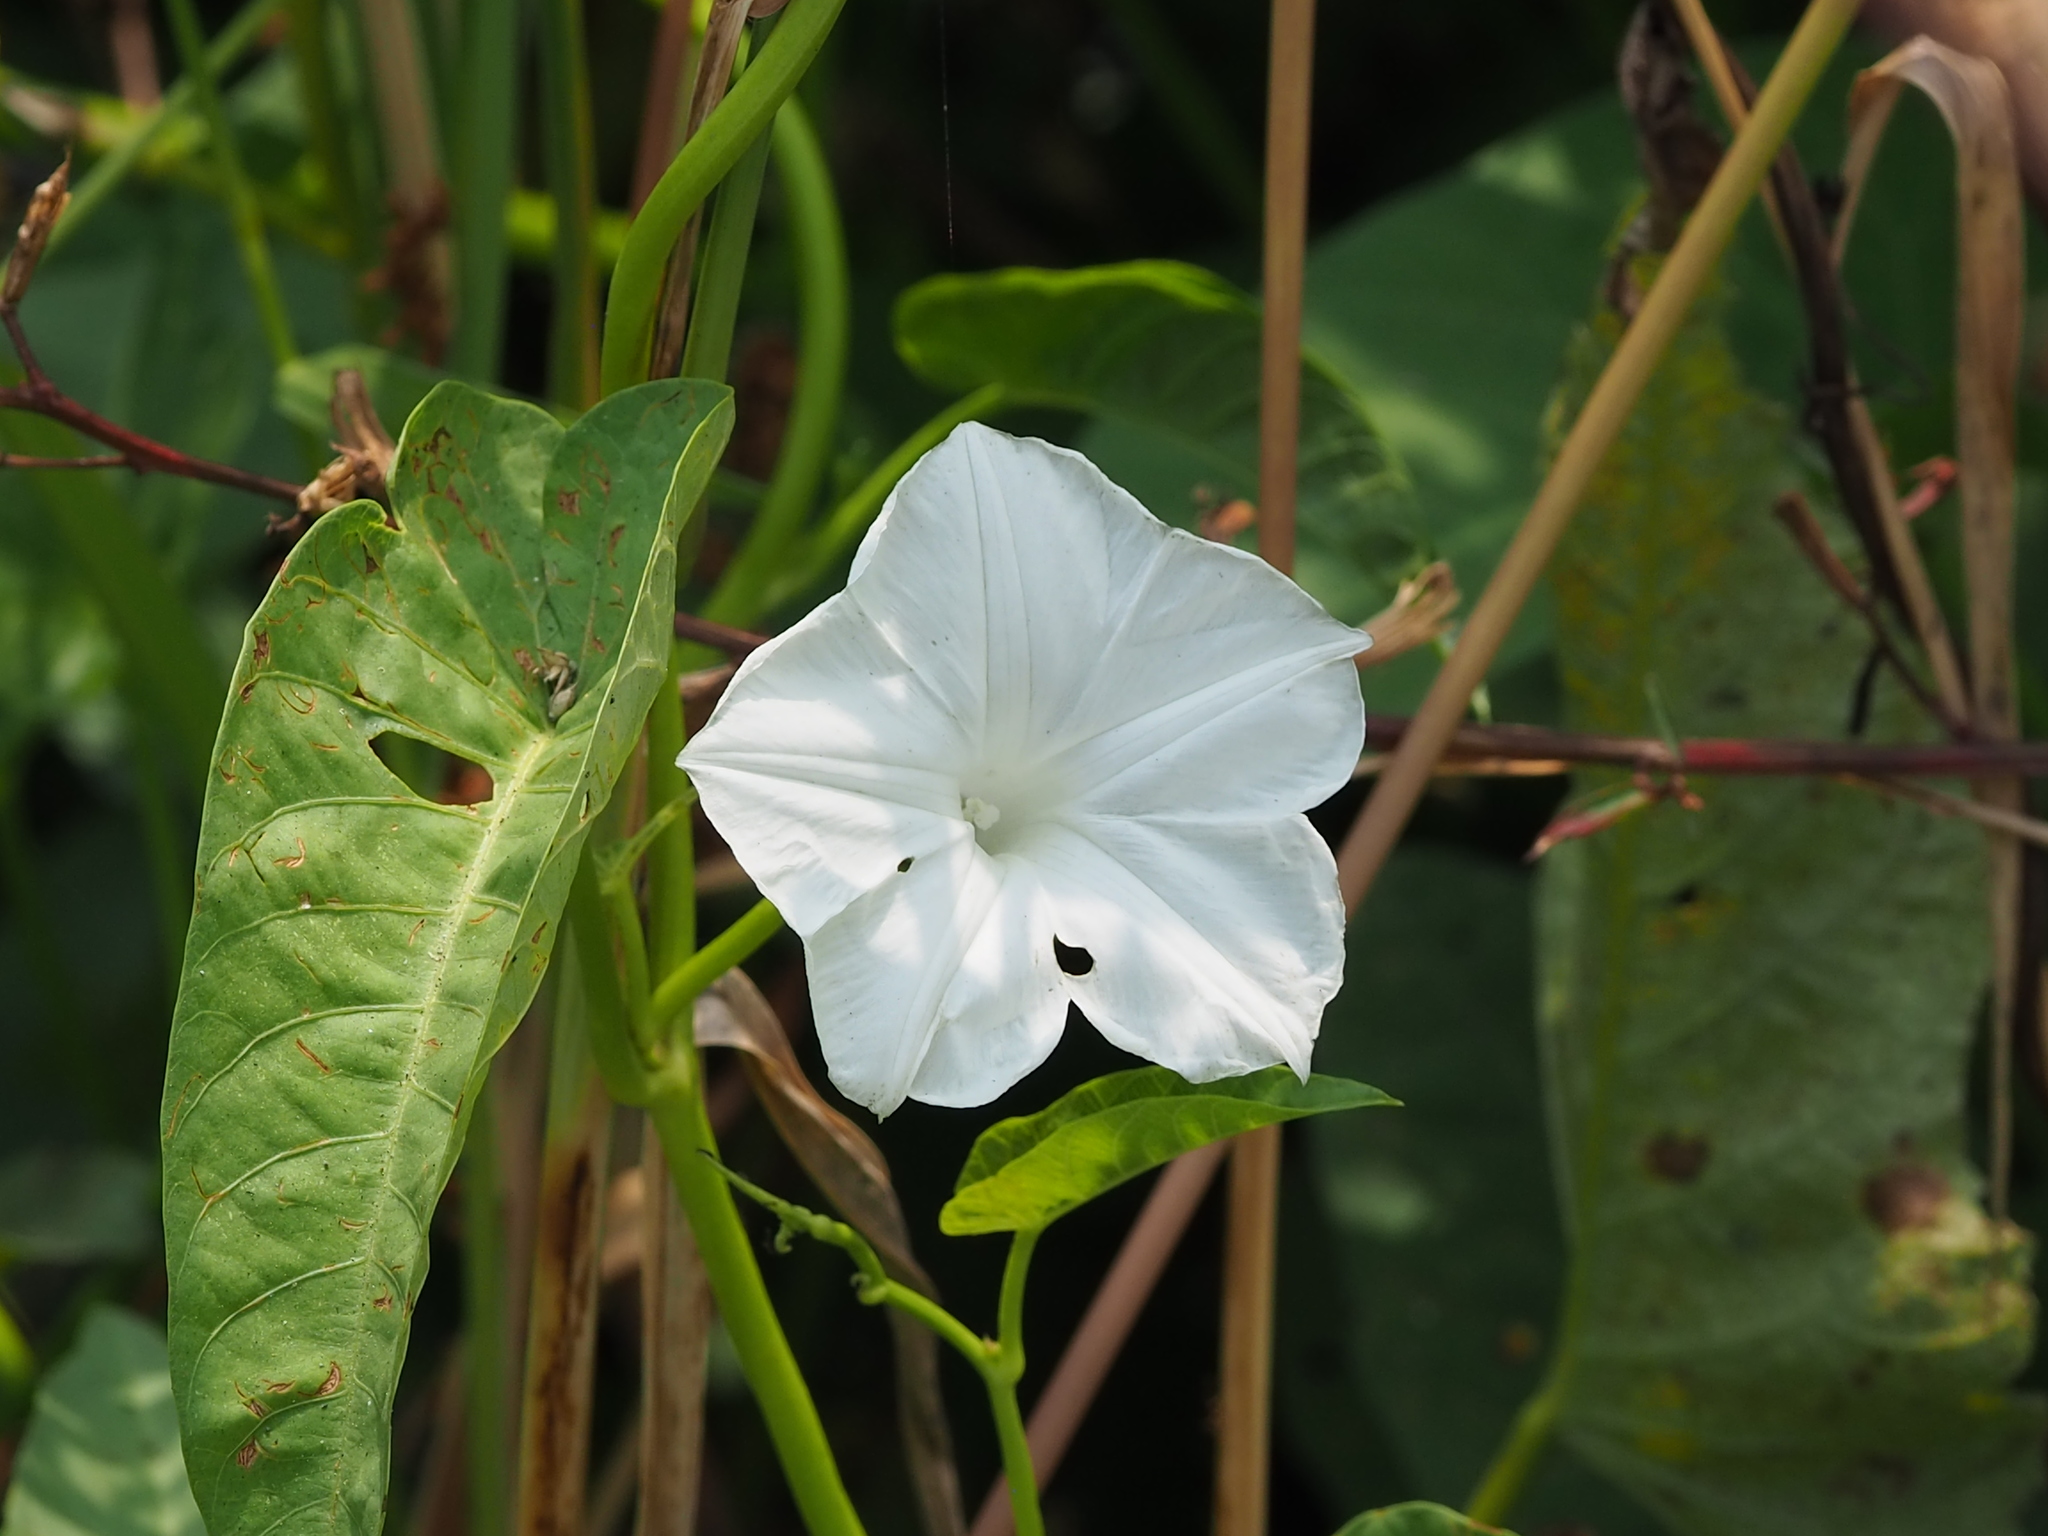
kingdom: Plantae
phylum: Tracheophyta
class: Magnoliopsida
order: Solanales
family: Convolvulaceae
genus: Ipomoea
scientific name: Ipomoea aquatica
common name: Swamp morning-glory
